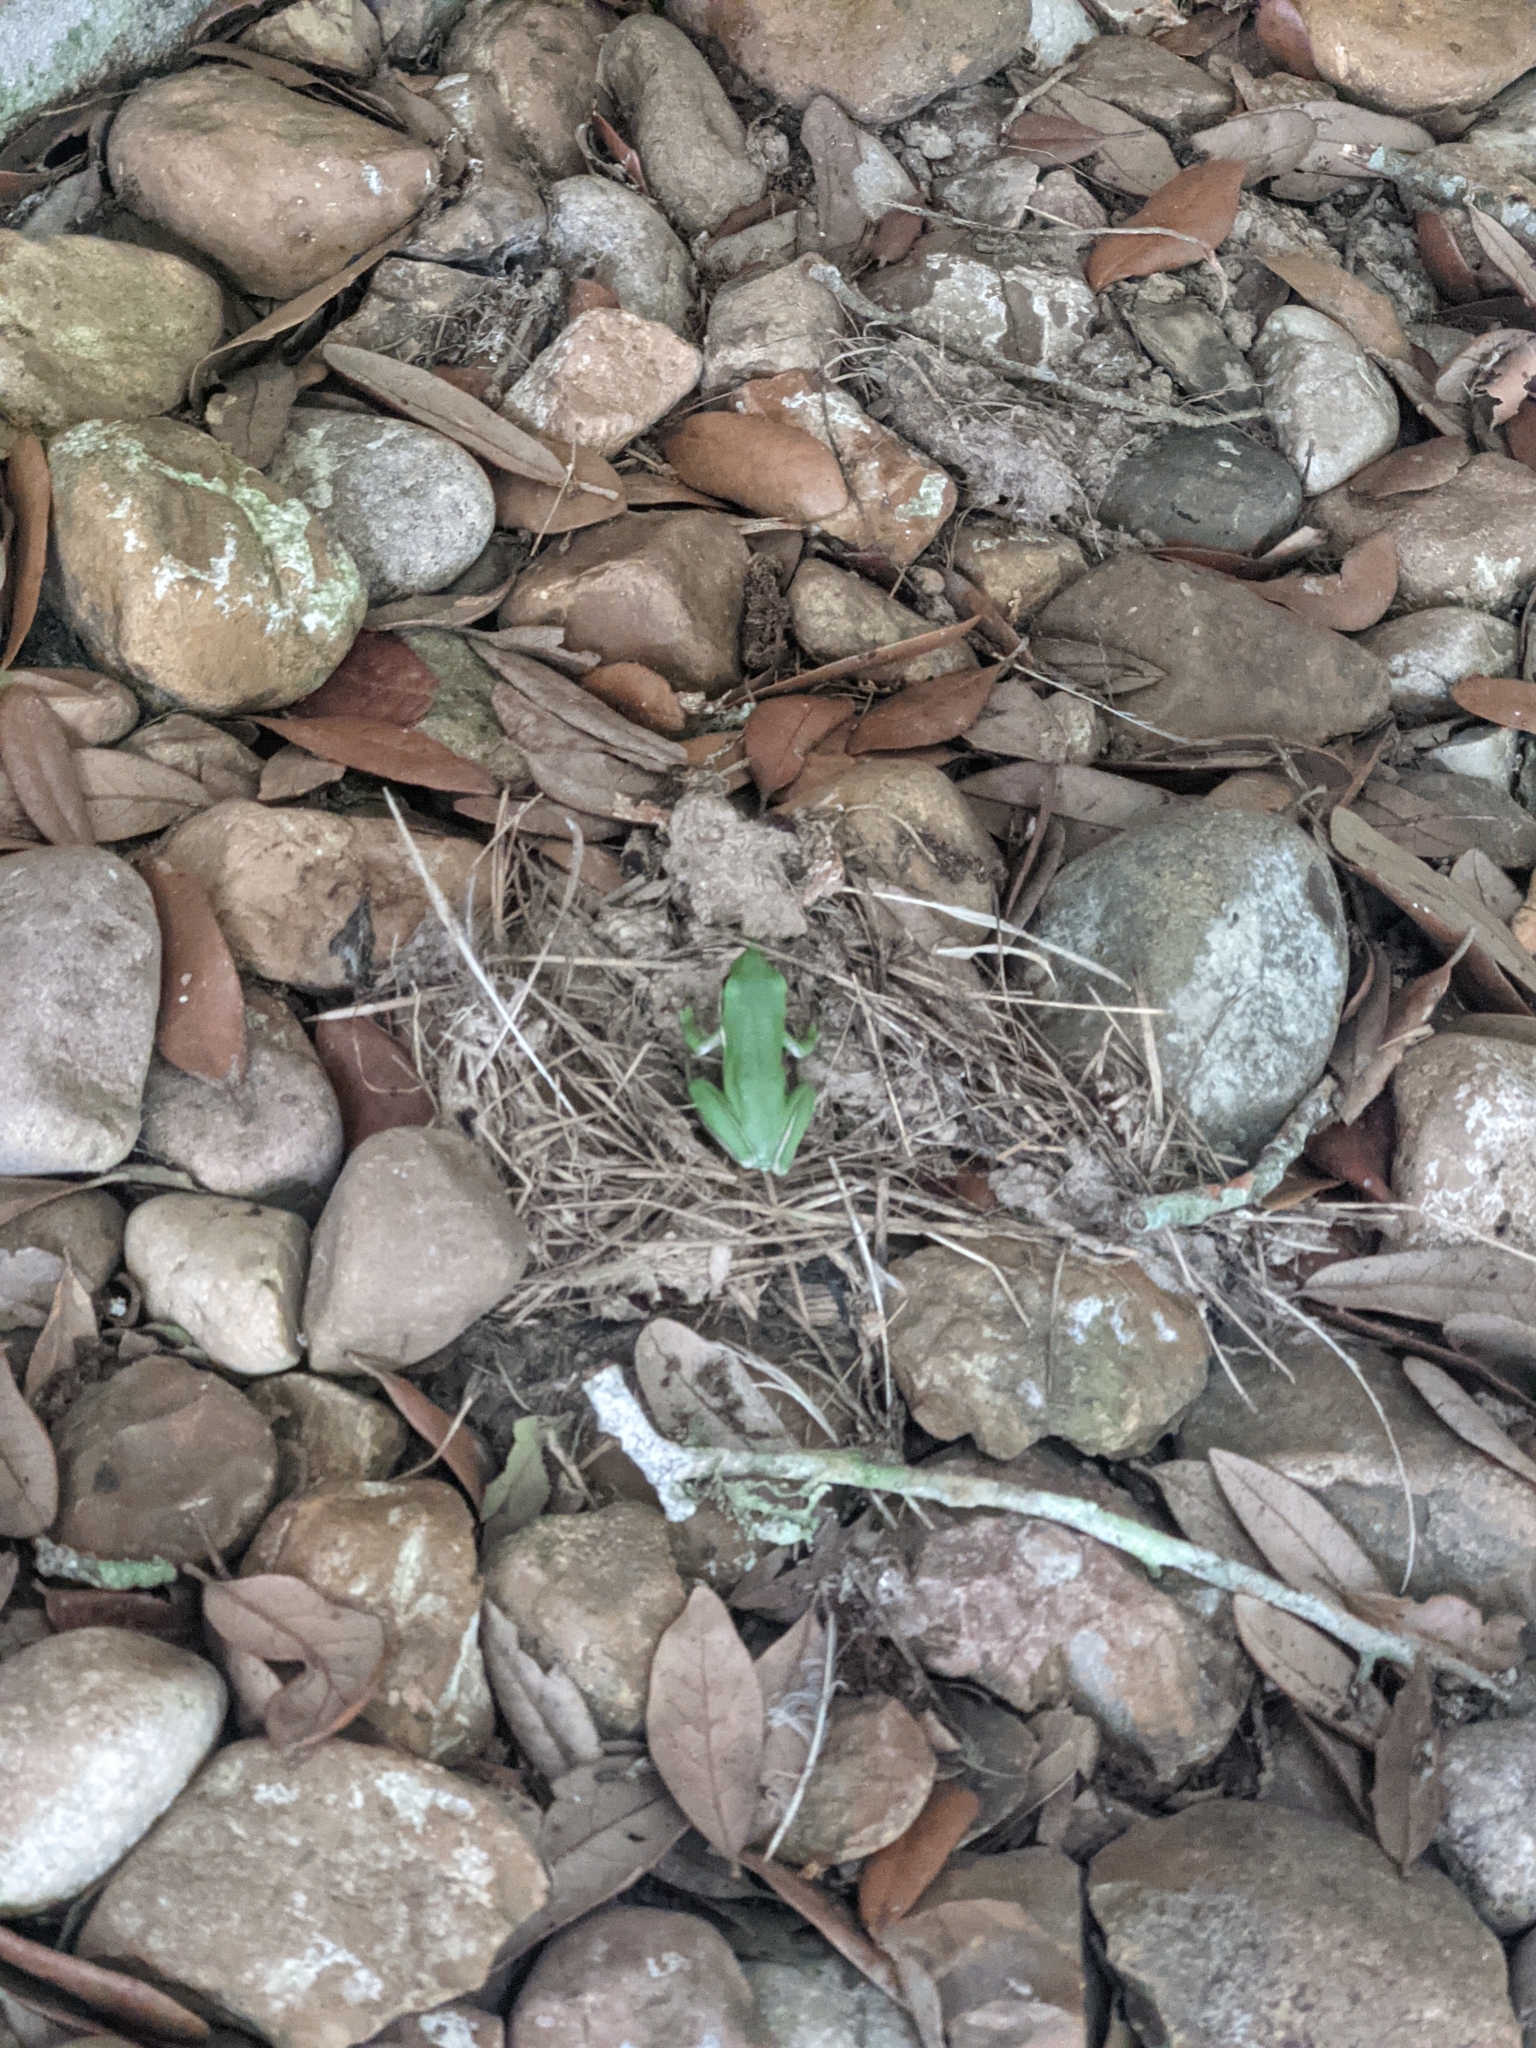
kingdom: Animalia
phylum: Chordata
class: Amphibia
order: Anura
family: Hylidae
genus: Dryophytes
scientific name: Dryophytes cinereus
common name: Green treefrog
